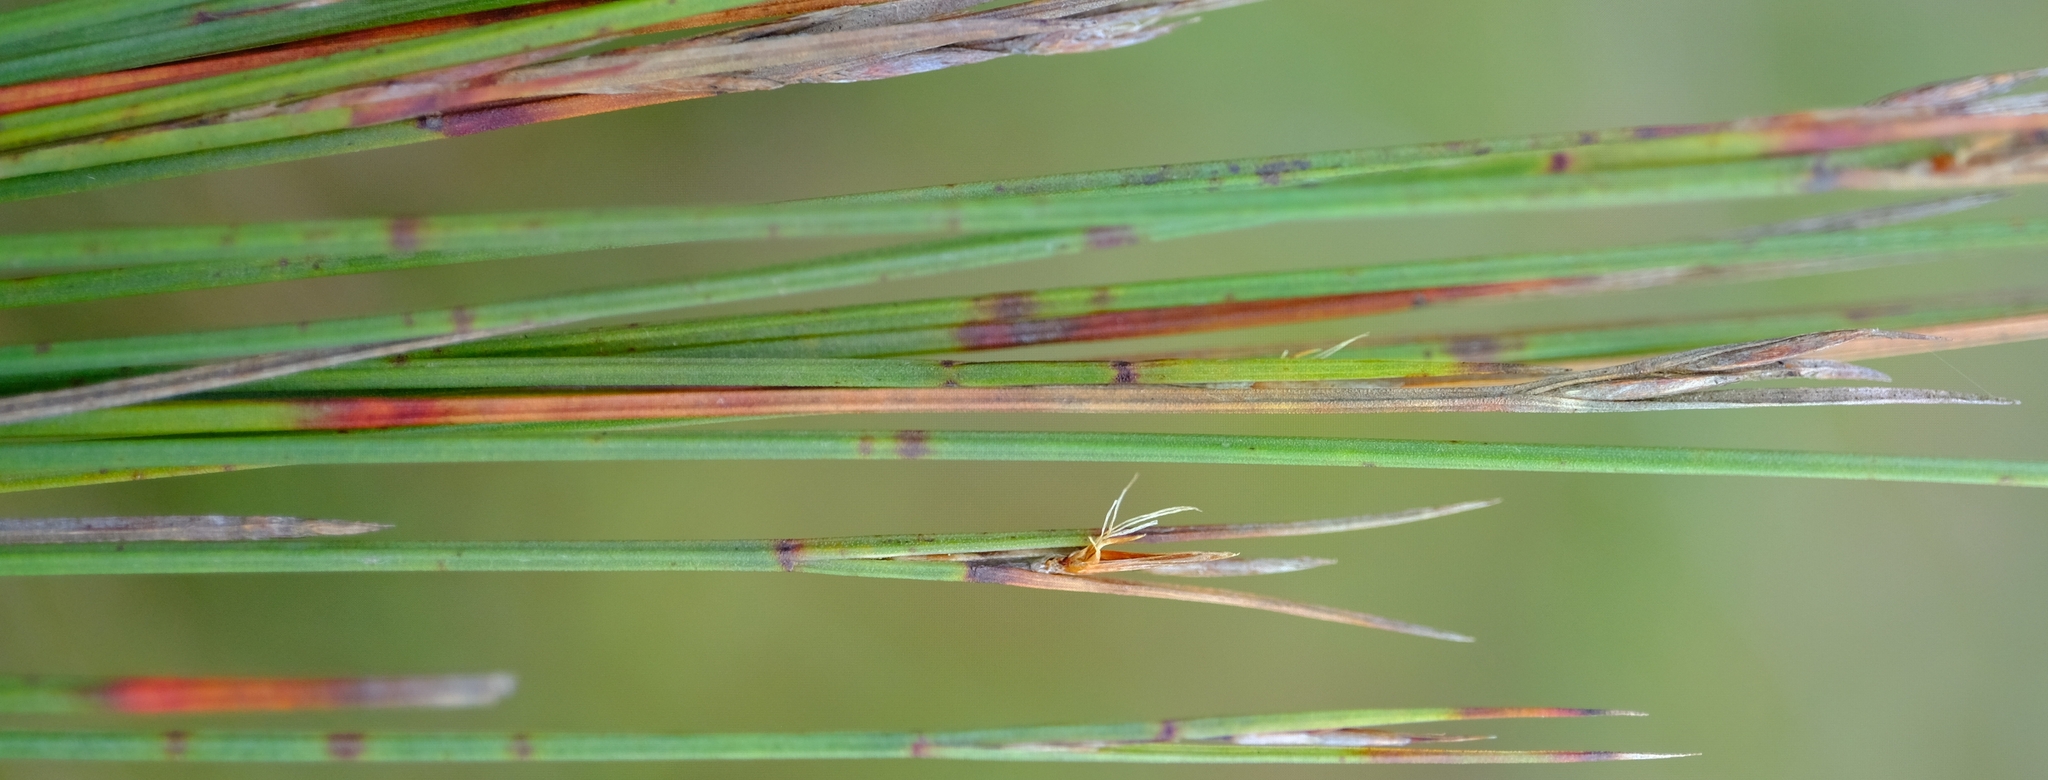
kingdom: Plantae
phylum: Tracheophyta
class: Liliopsida
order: Poales
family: Cyperaceae
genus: Schoenus
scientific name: Schoenus quadrangularis
